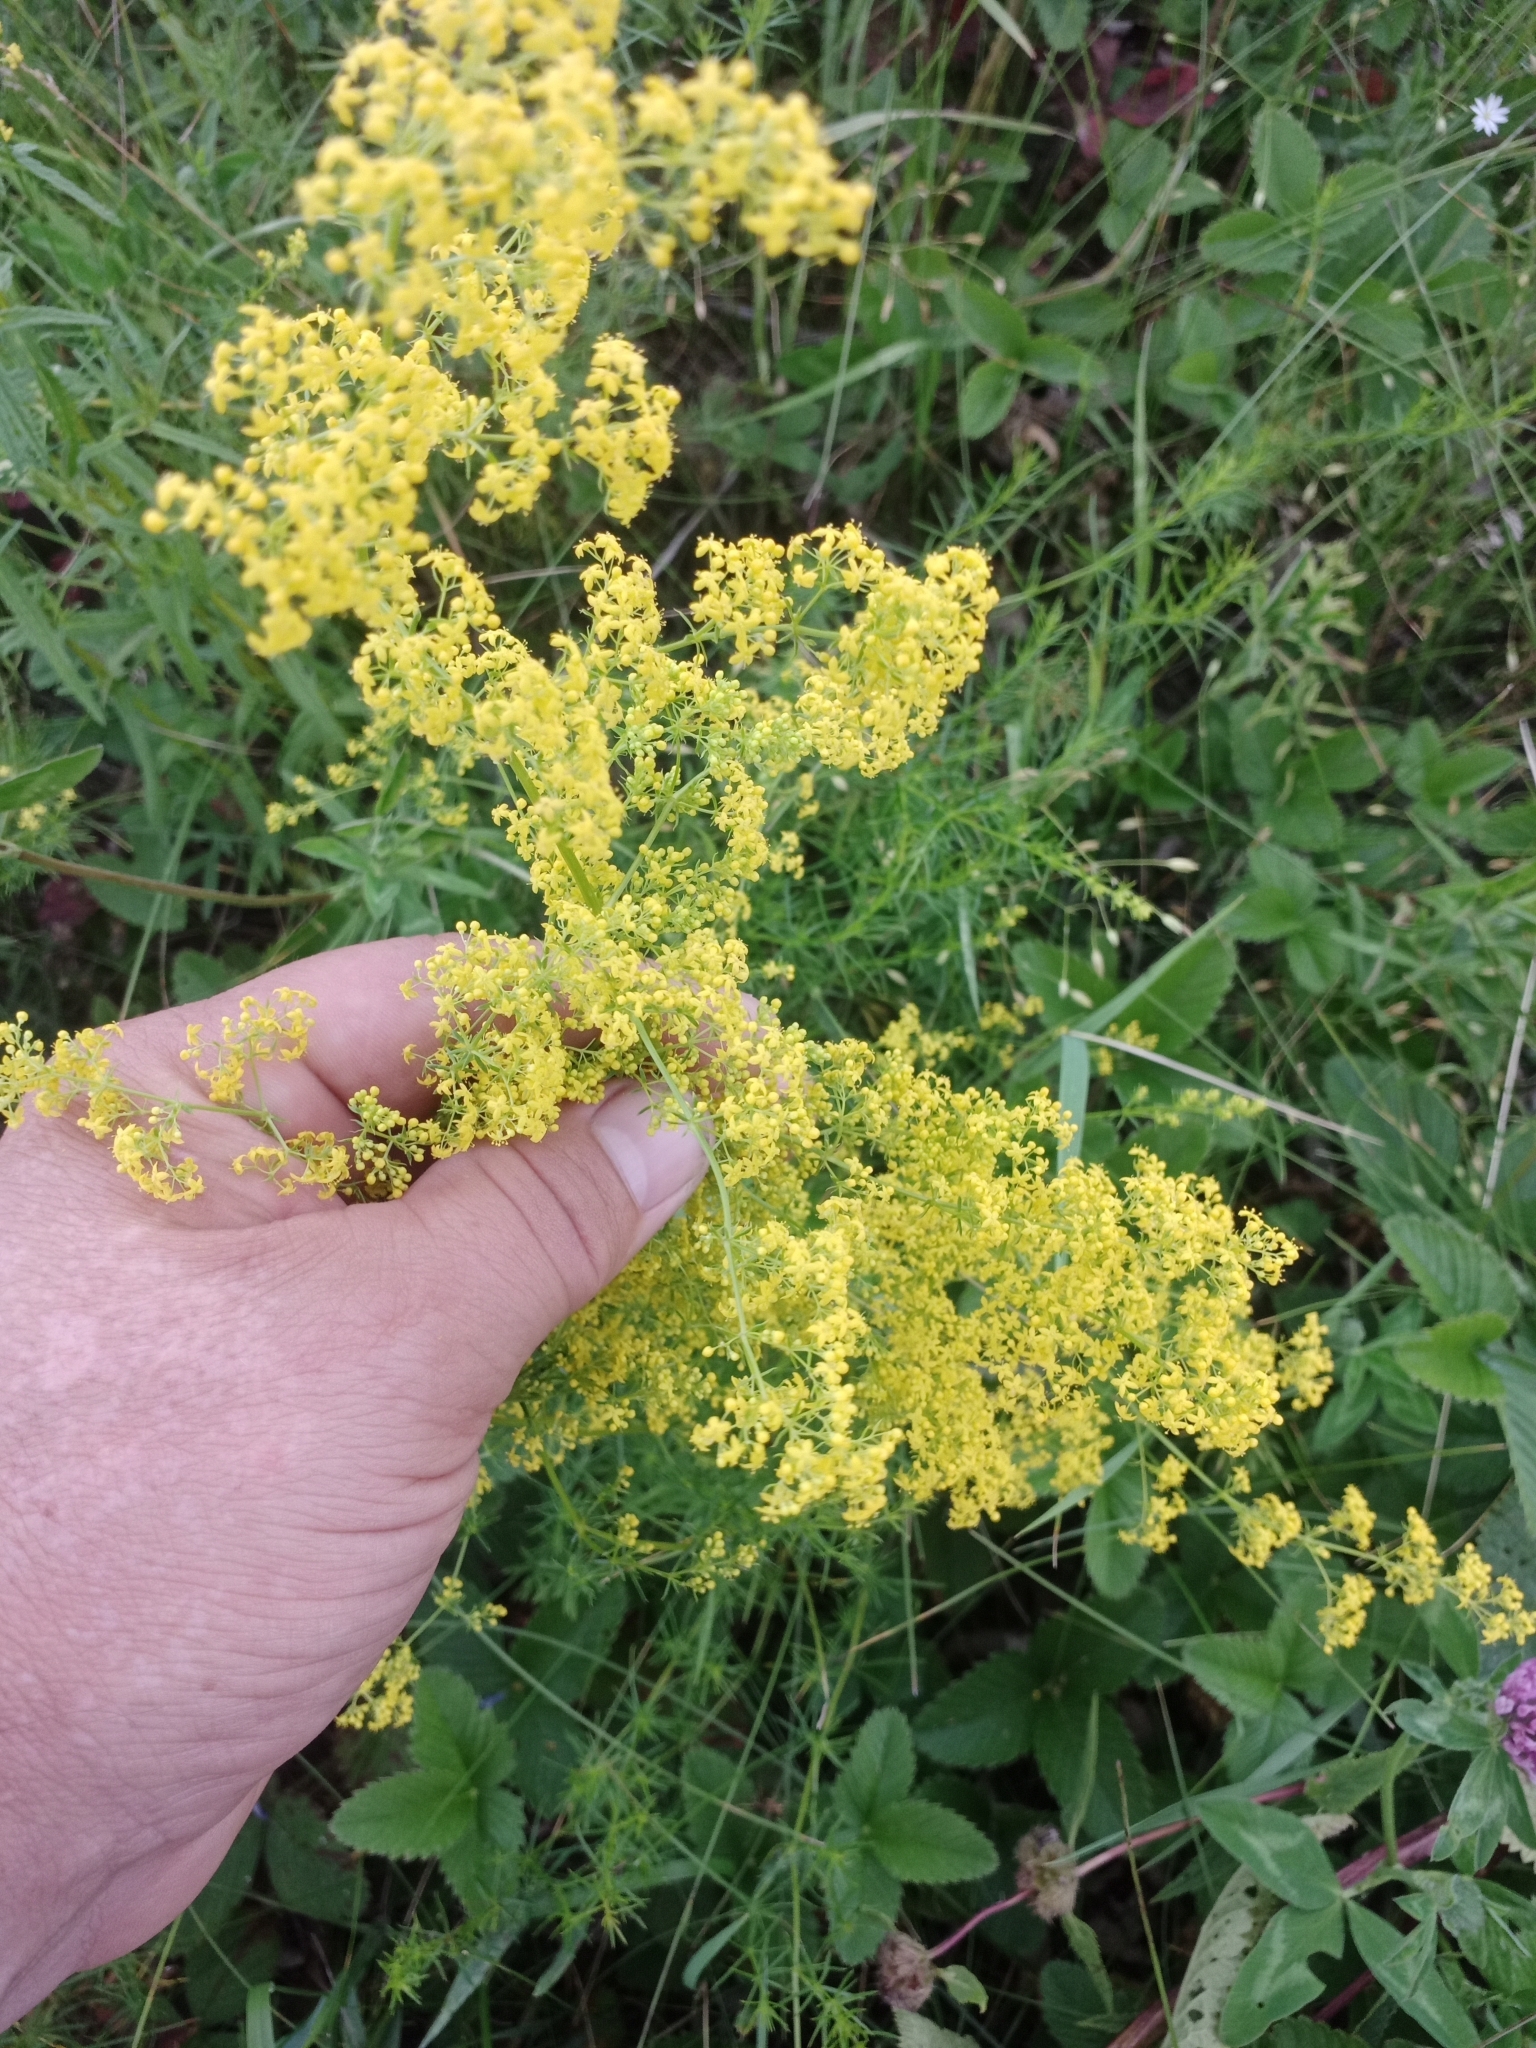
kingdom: Plantae
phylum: Tracheophyta
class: Magnoliopsida
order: Gentianales
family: Rubiaceae
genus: Galium
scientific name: Galium verum
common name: Lady's bedstraw
